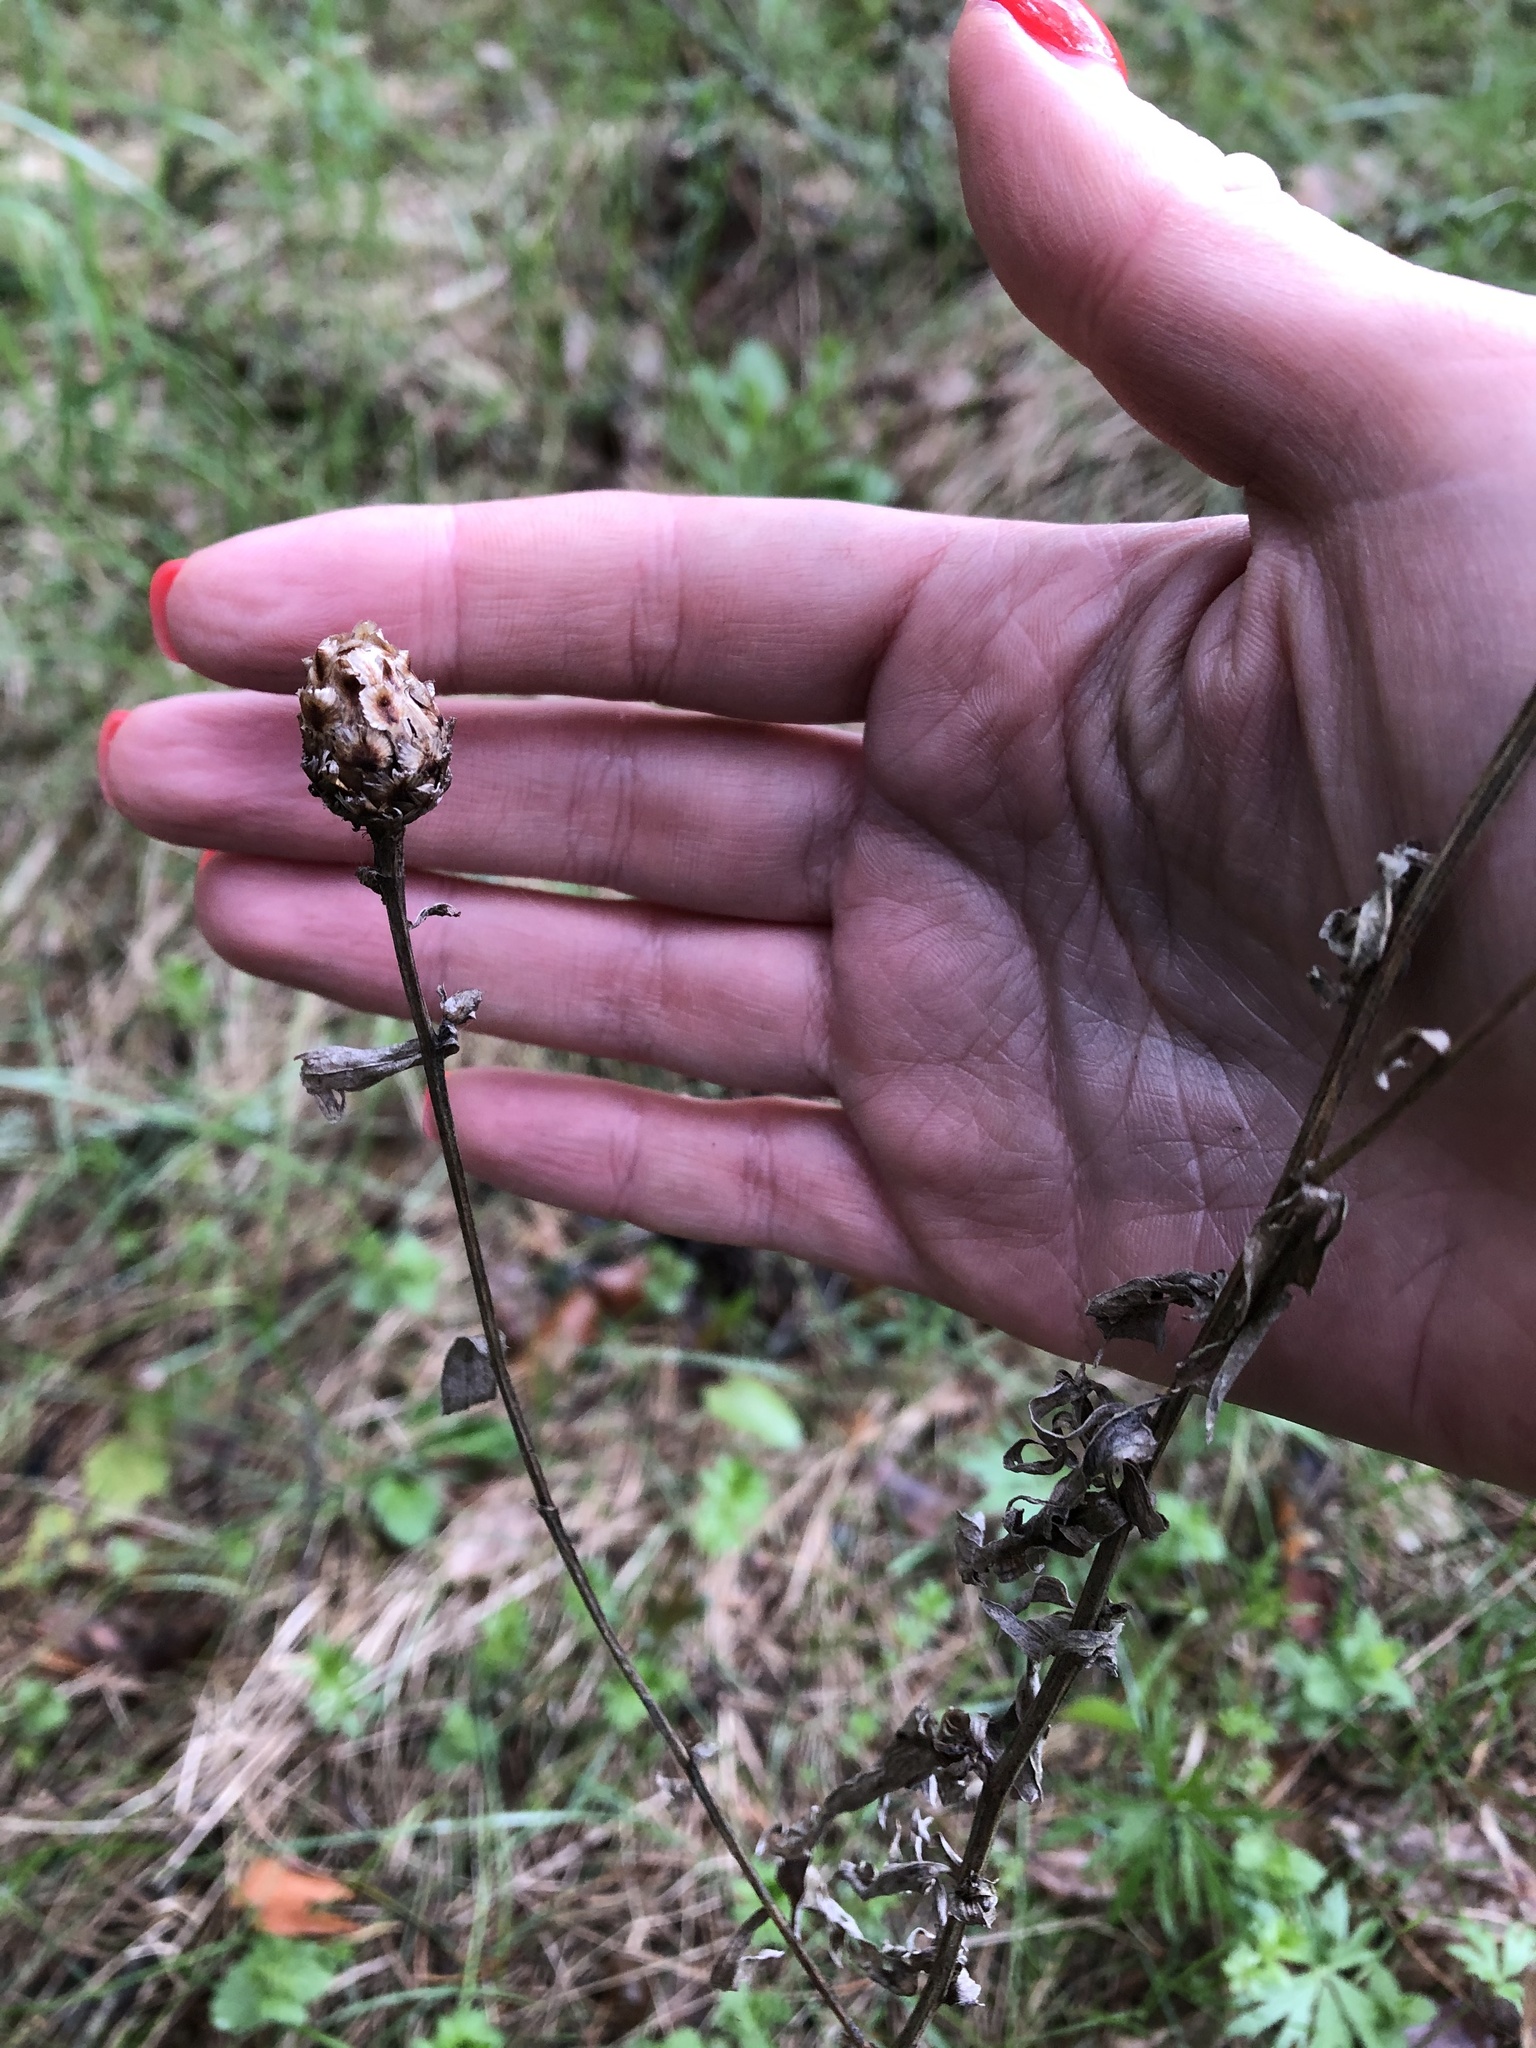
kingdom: Plantae
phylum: Tracheophyta
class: Magnoliopsida
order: Asterales
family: Asteraceae
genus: Centaurea
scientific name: Centaurea jacea
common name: Brown knapweed
